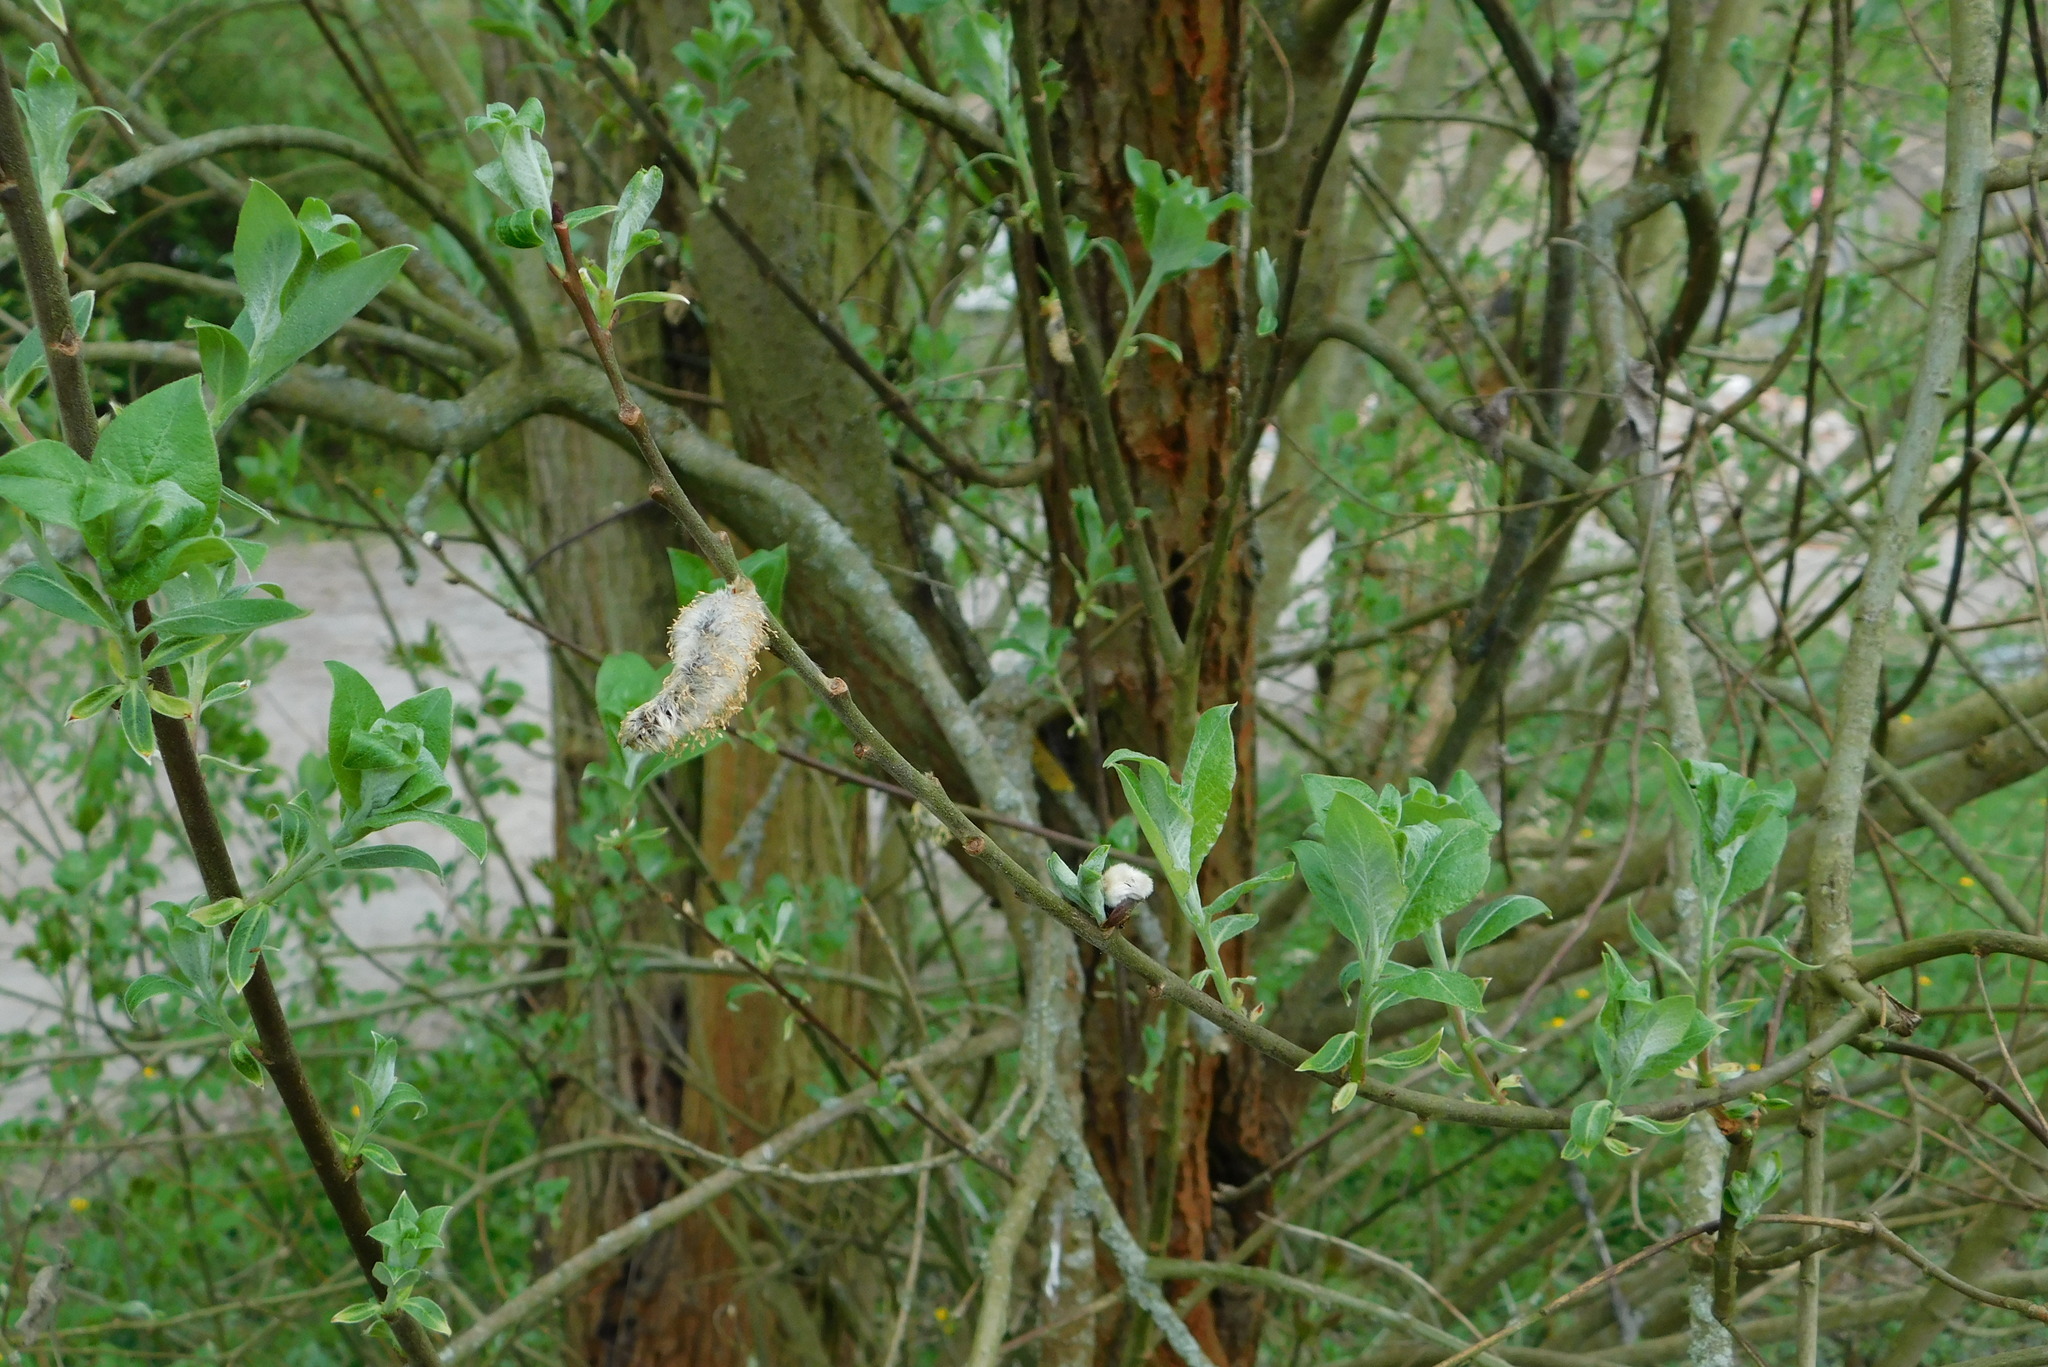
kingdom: Plantae
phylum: Tracheophyta
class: Magnoliopsida
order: Malpighiales
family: Salicaceae
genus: Salix
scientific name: Salix caprea
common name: Goat willow
